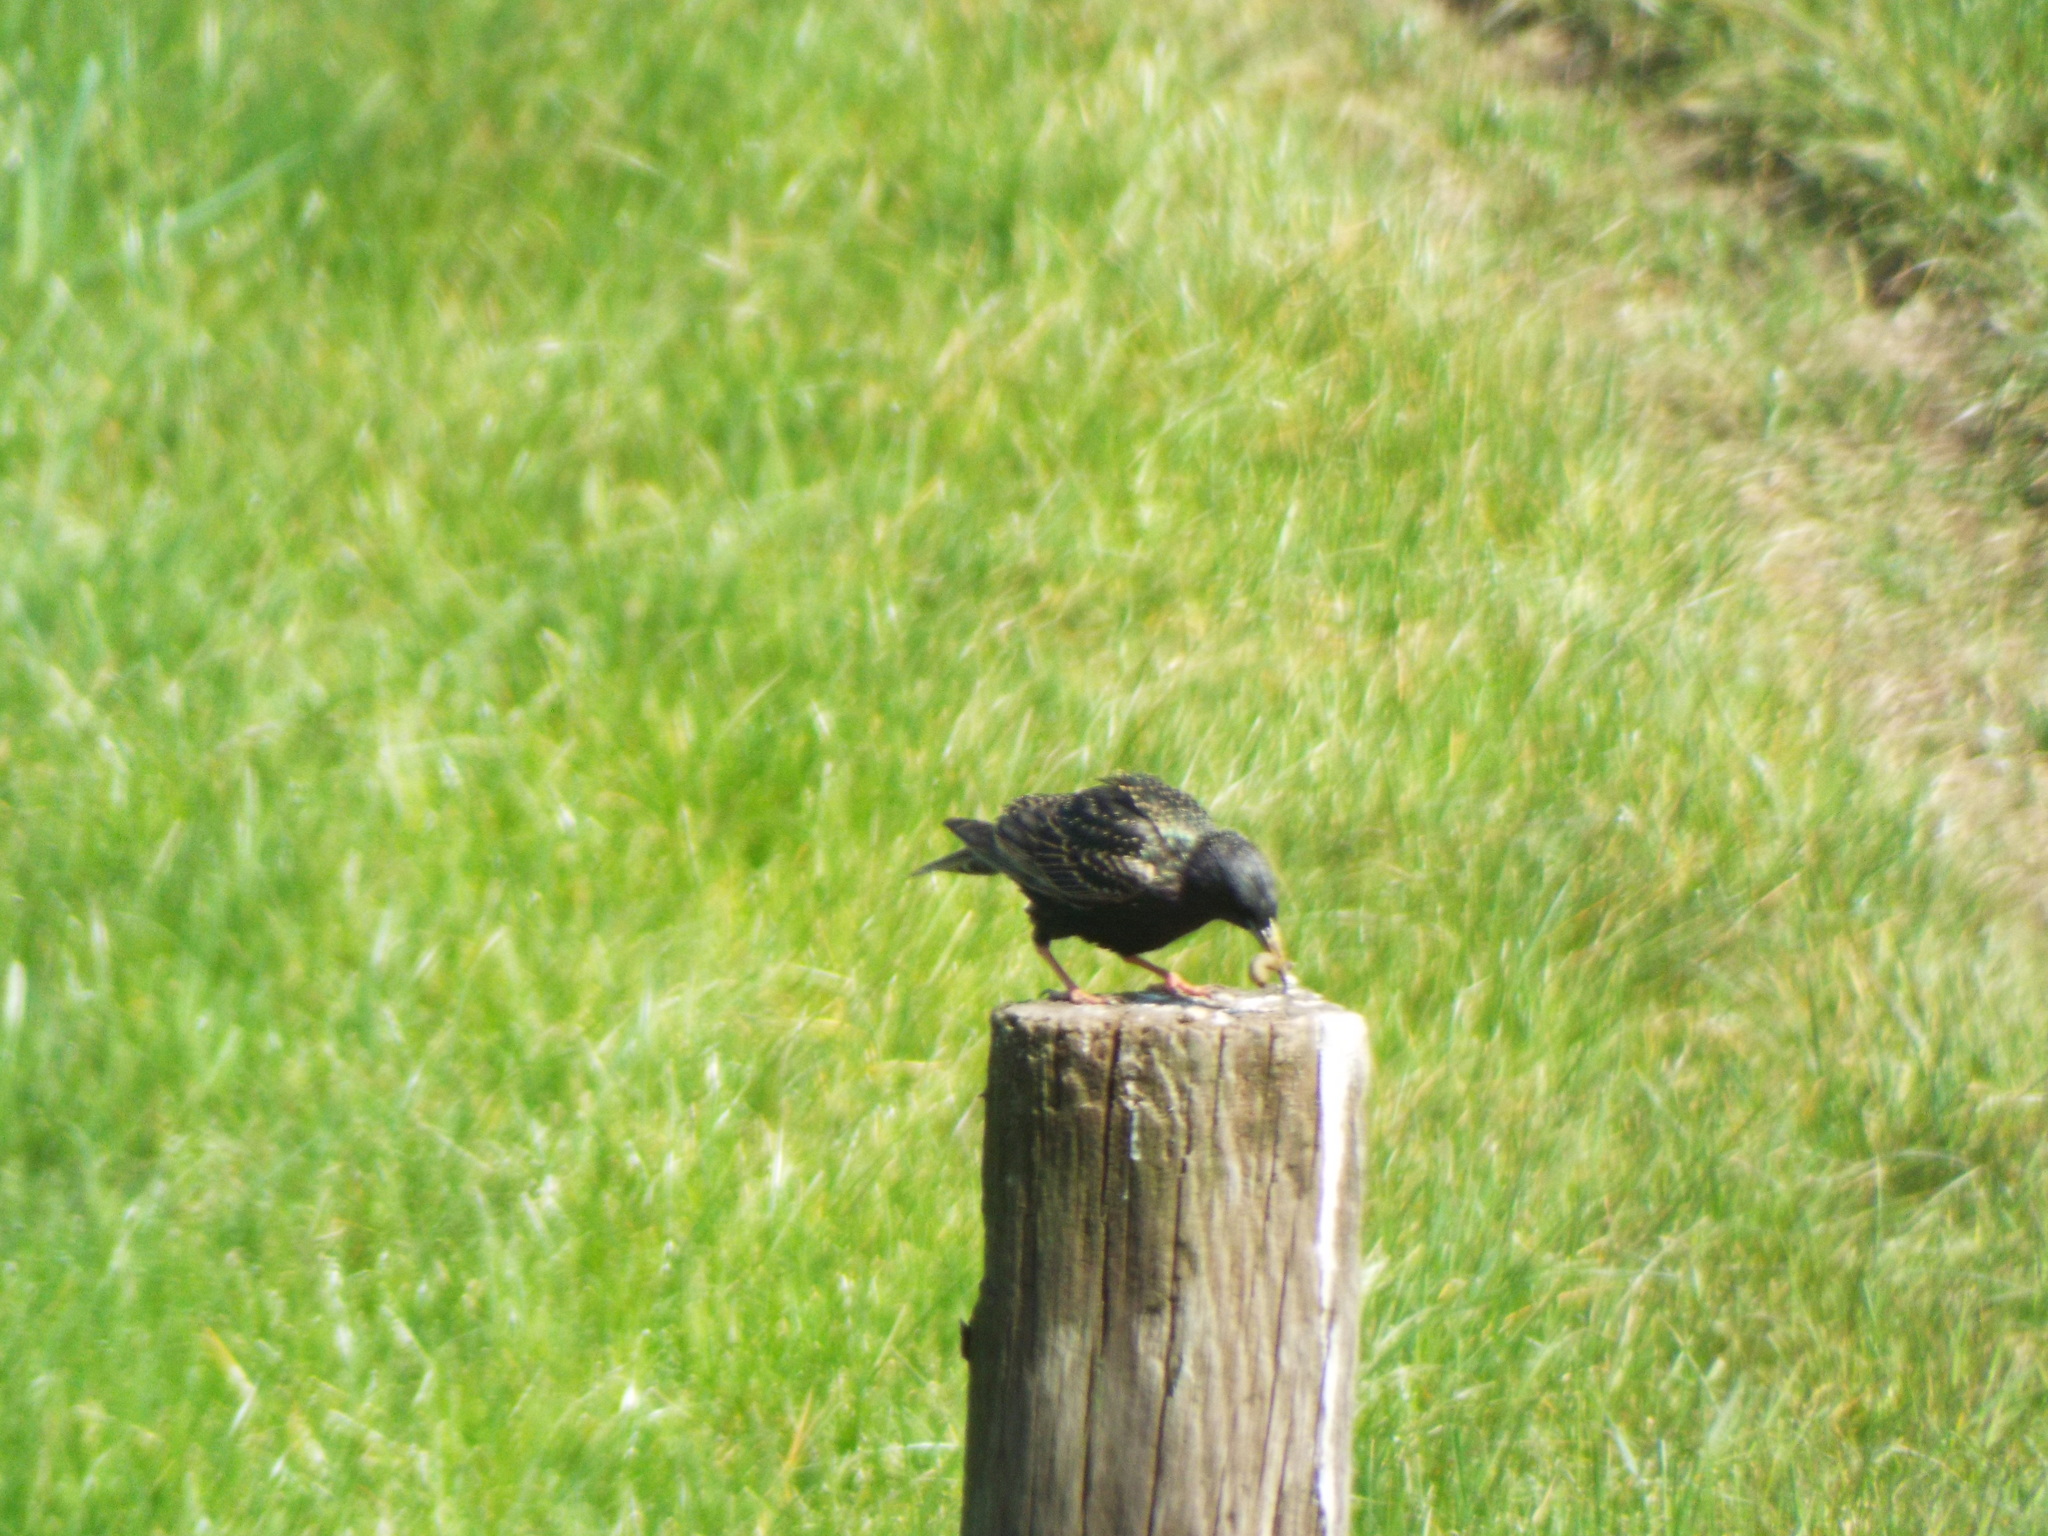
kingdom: Animalia
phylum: Chordata
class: Aves
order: Passeriformes
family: Sturnidae
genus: Sturnus
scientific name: Sturnus vulgaris
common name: Common starling
